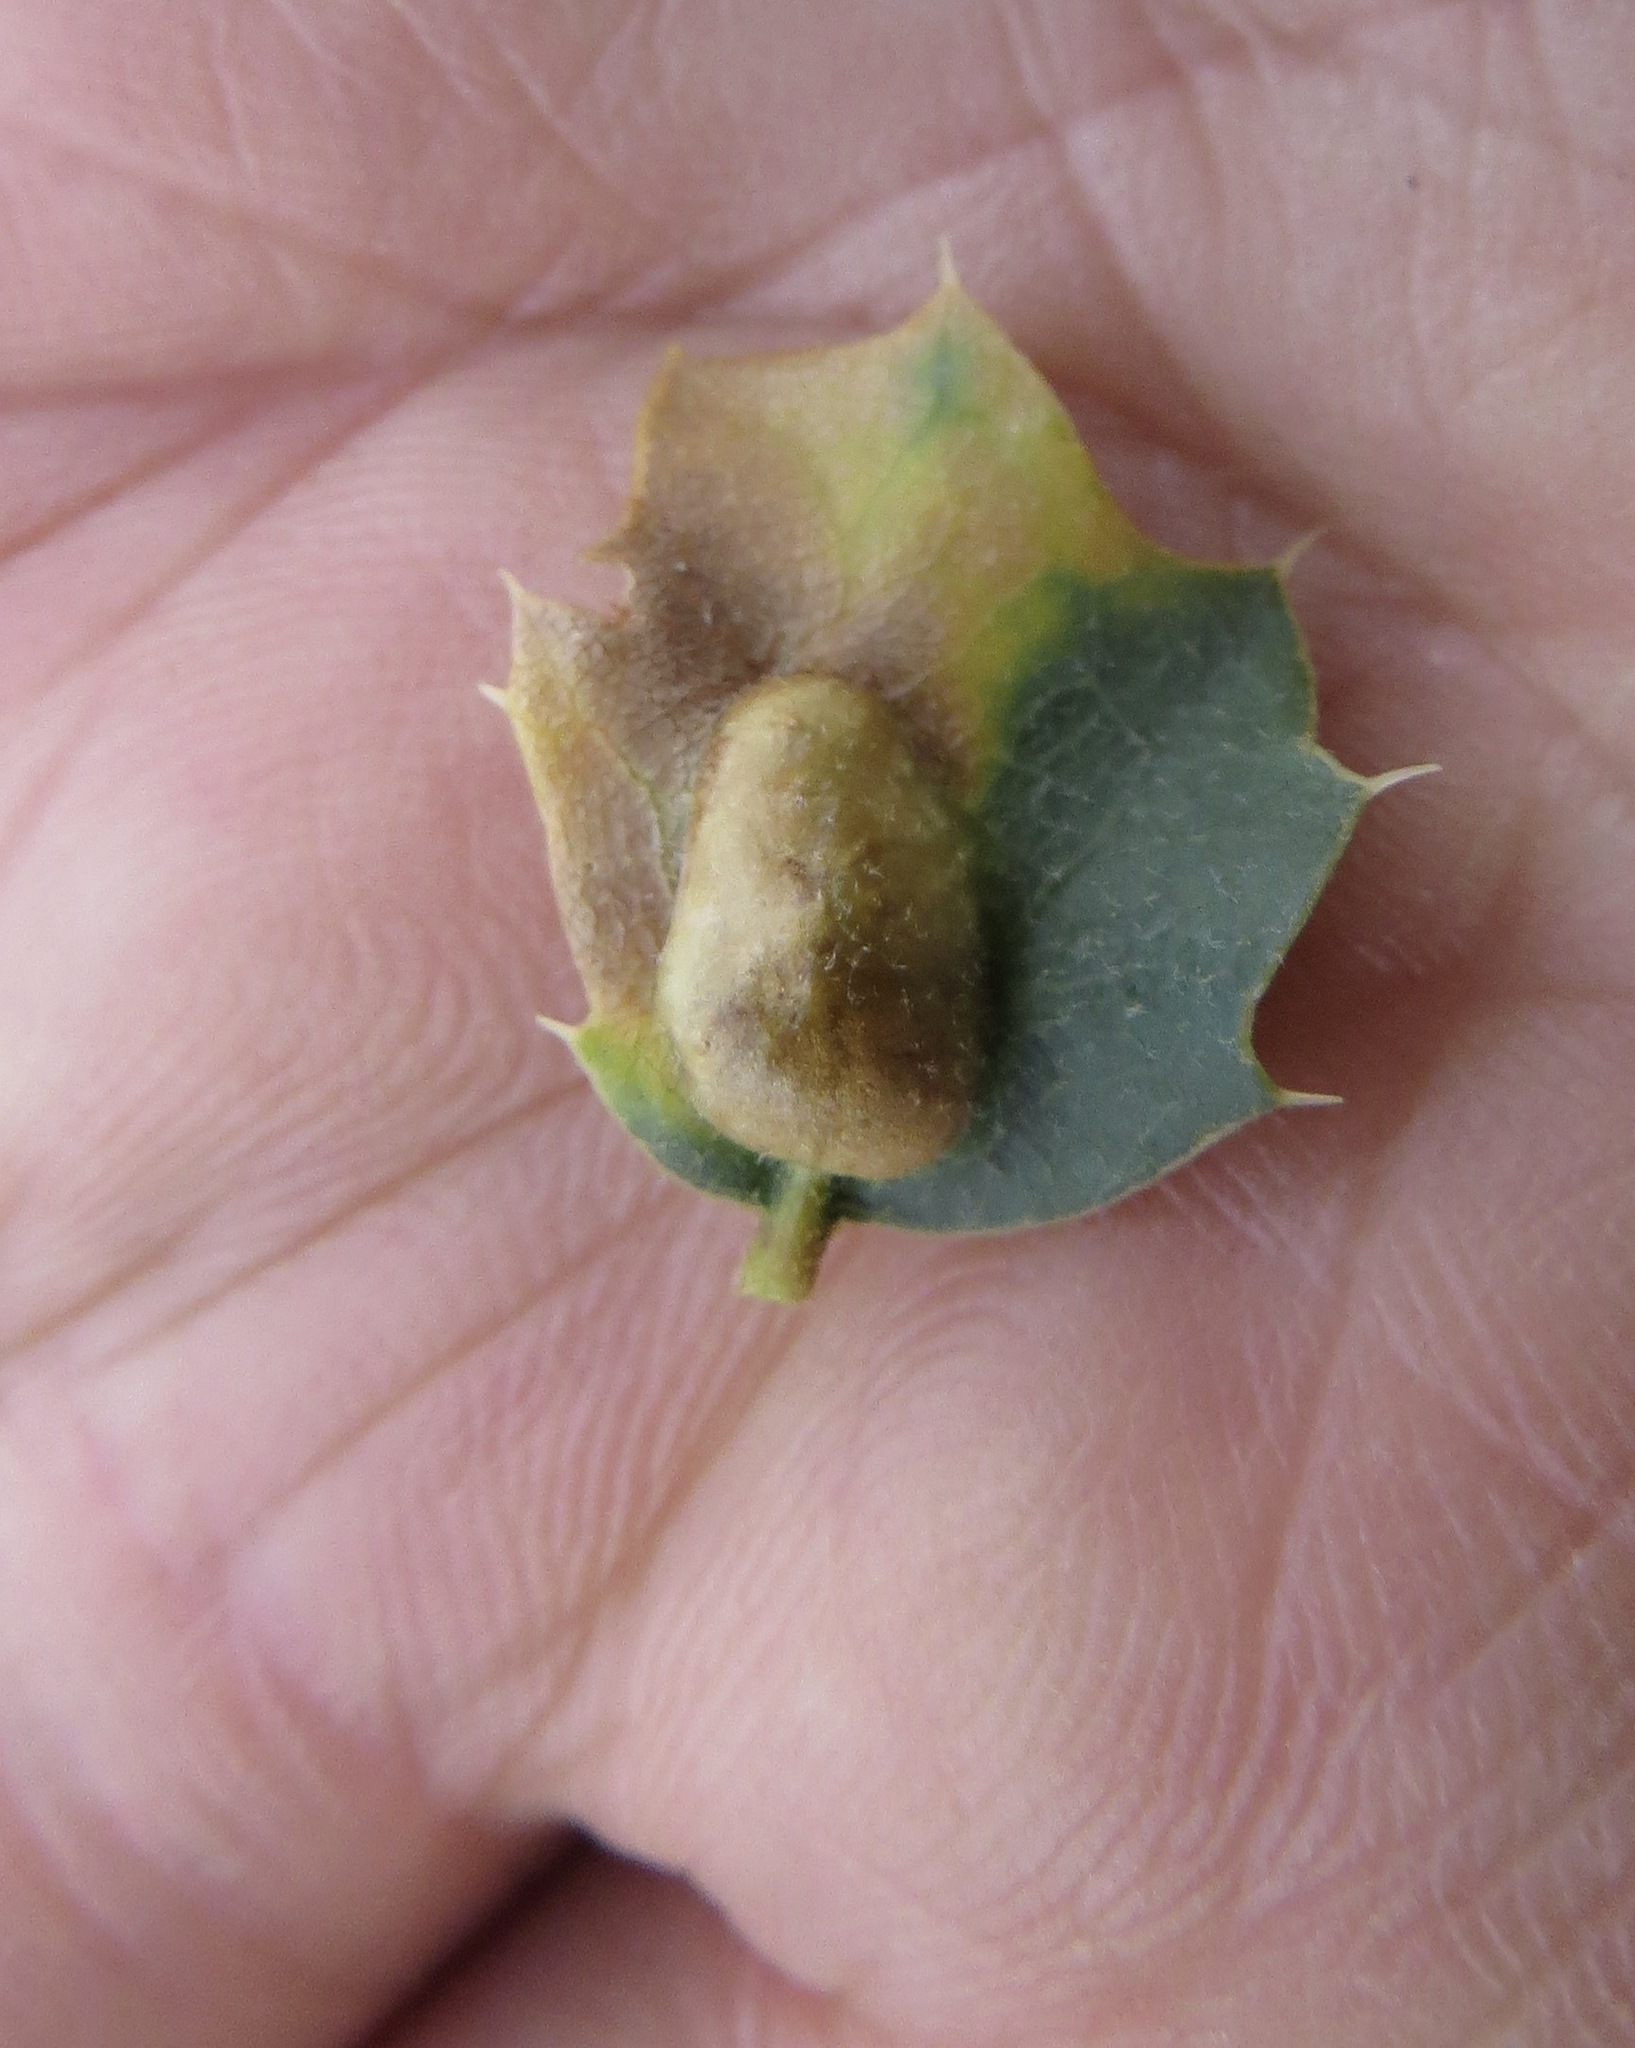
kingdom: Animalia
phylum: Arthropoda
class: Insecta
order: Hymenoptera
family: Cynipidae
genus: Neuroterus
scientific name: Neuroterus
